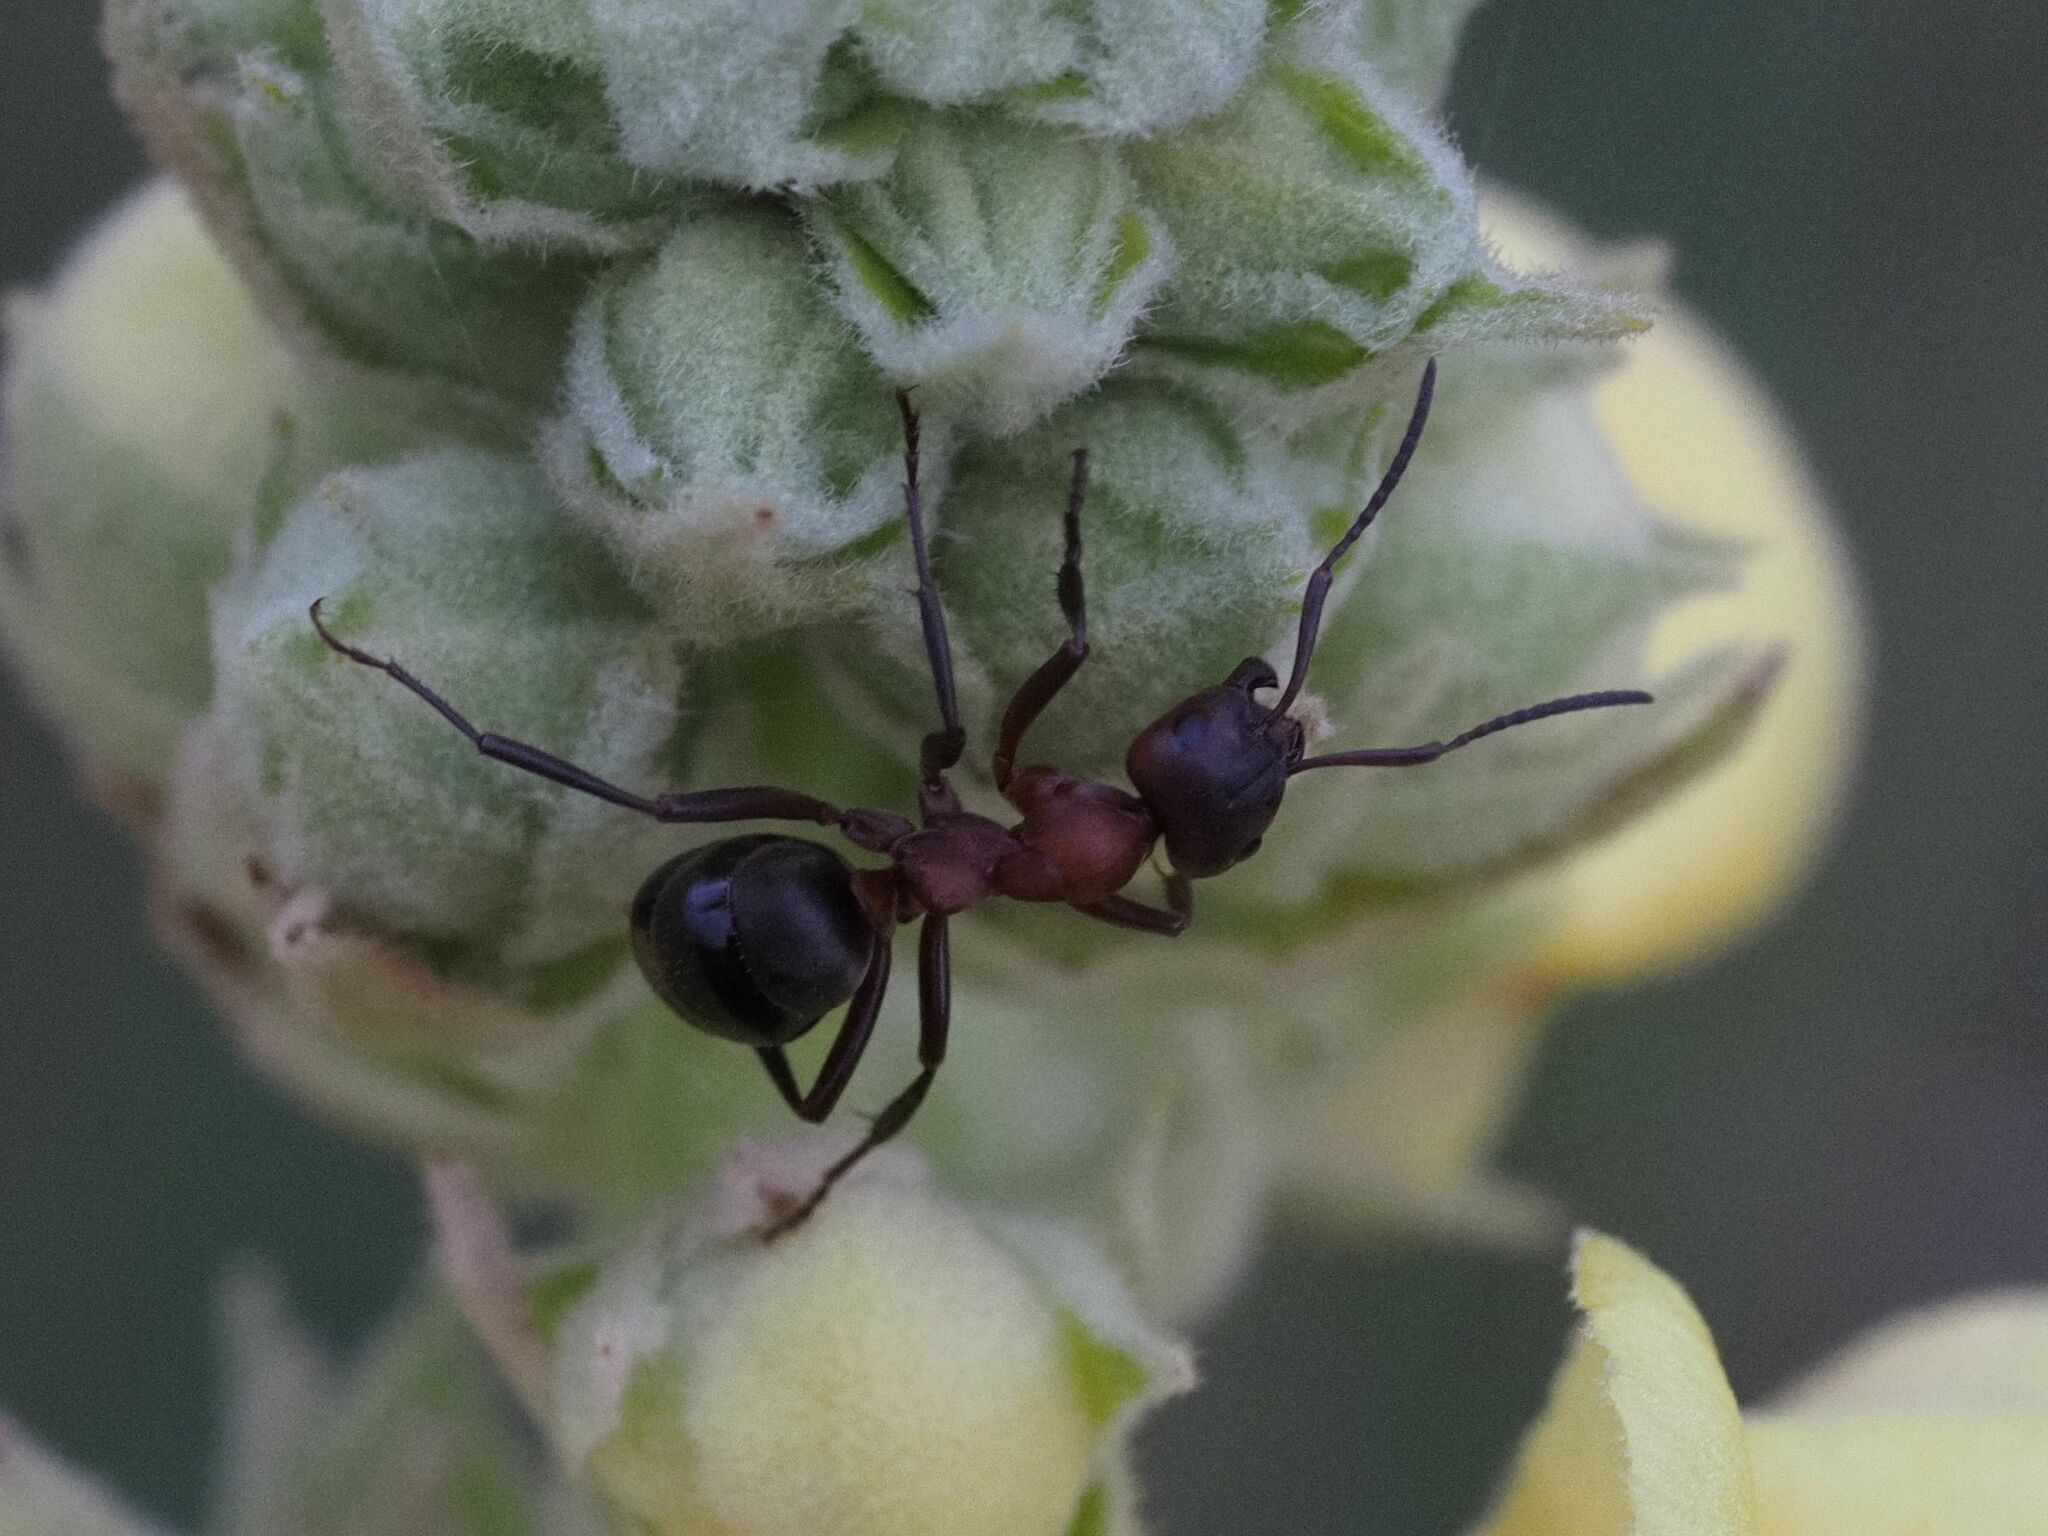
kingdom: Animalia
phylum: Arthropoda
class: Insecta
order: Hymenoptera
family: Formicidae
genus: Formica
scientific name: Formica sanguinea
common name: Blood-red ant
